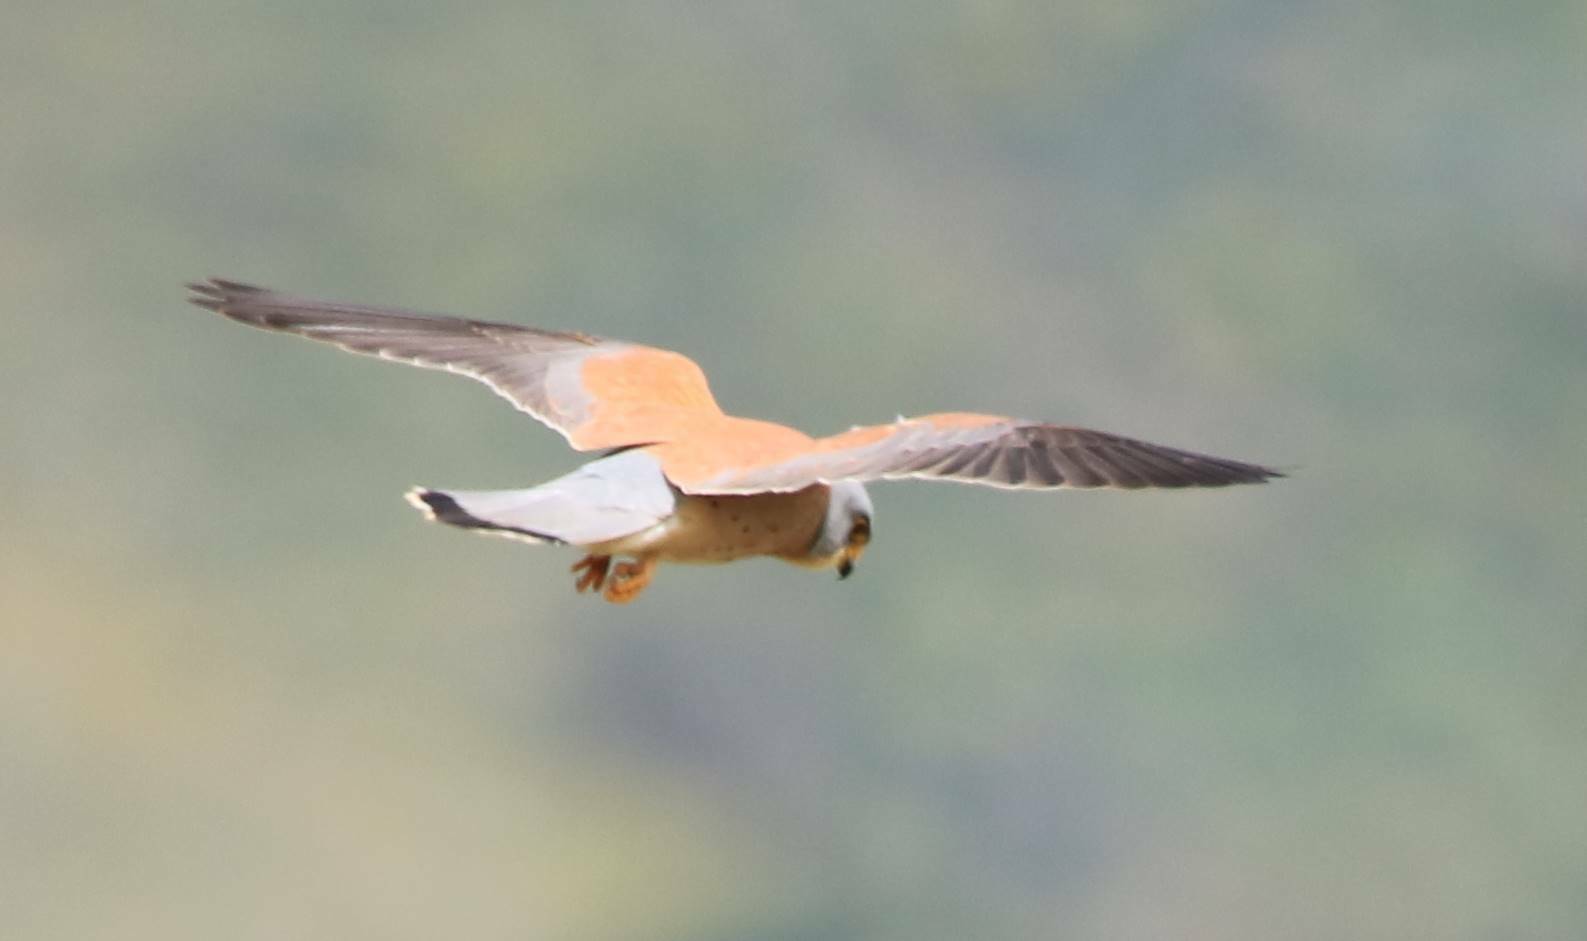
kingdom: Animalia
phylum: Chordata
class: Aves
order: Falconiformes
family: Falconidae
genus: Falco
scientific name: Falco naumanni
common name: Lesser kestrel
